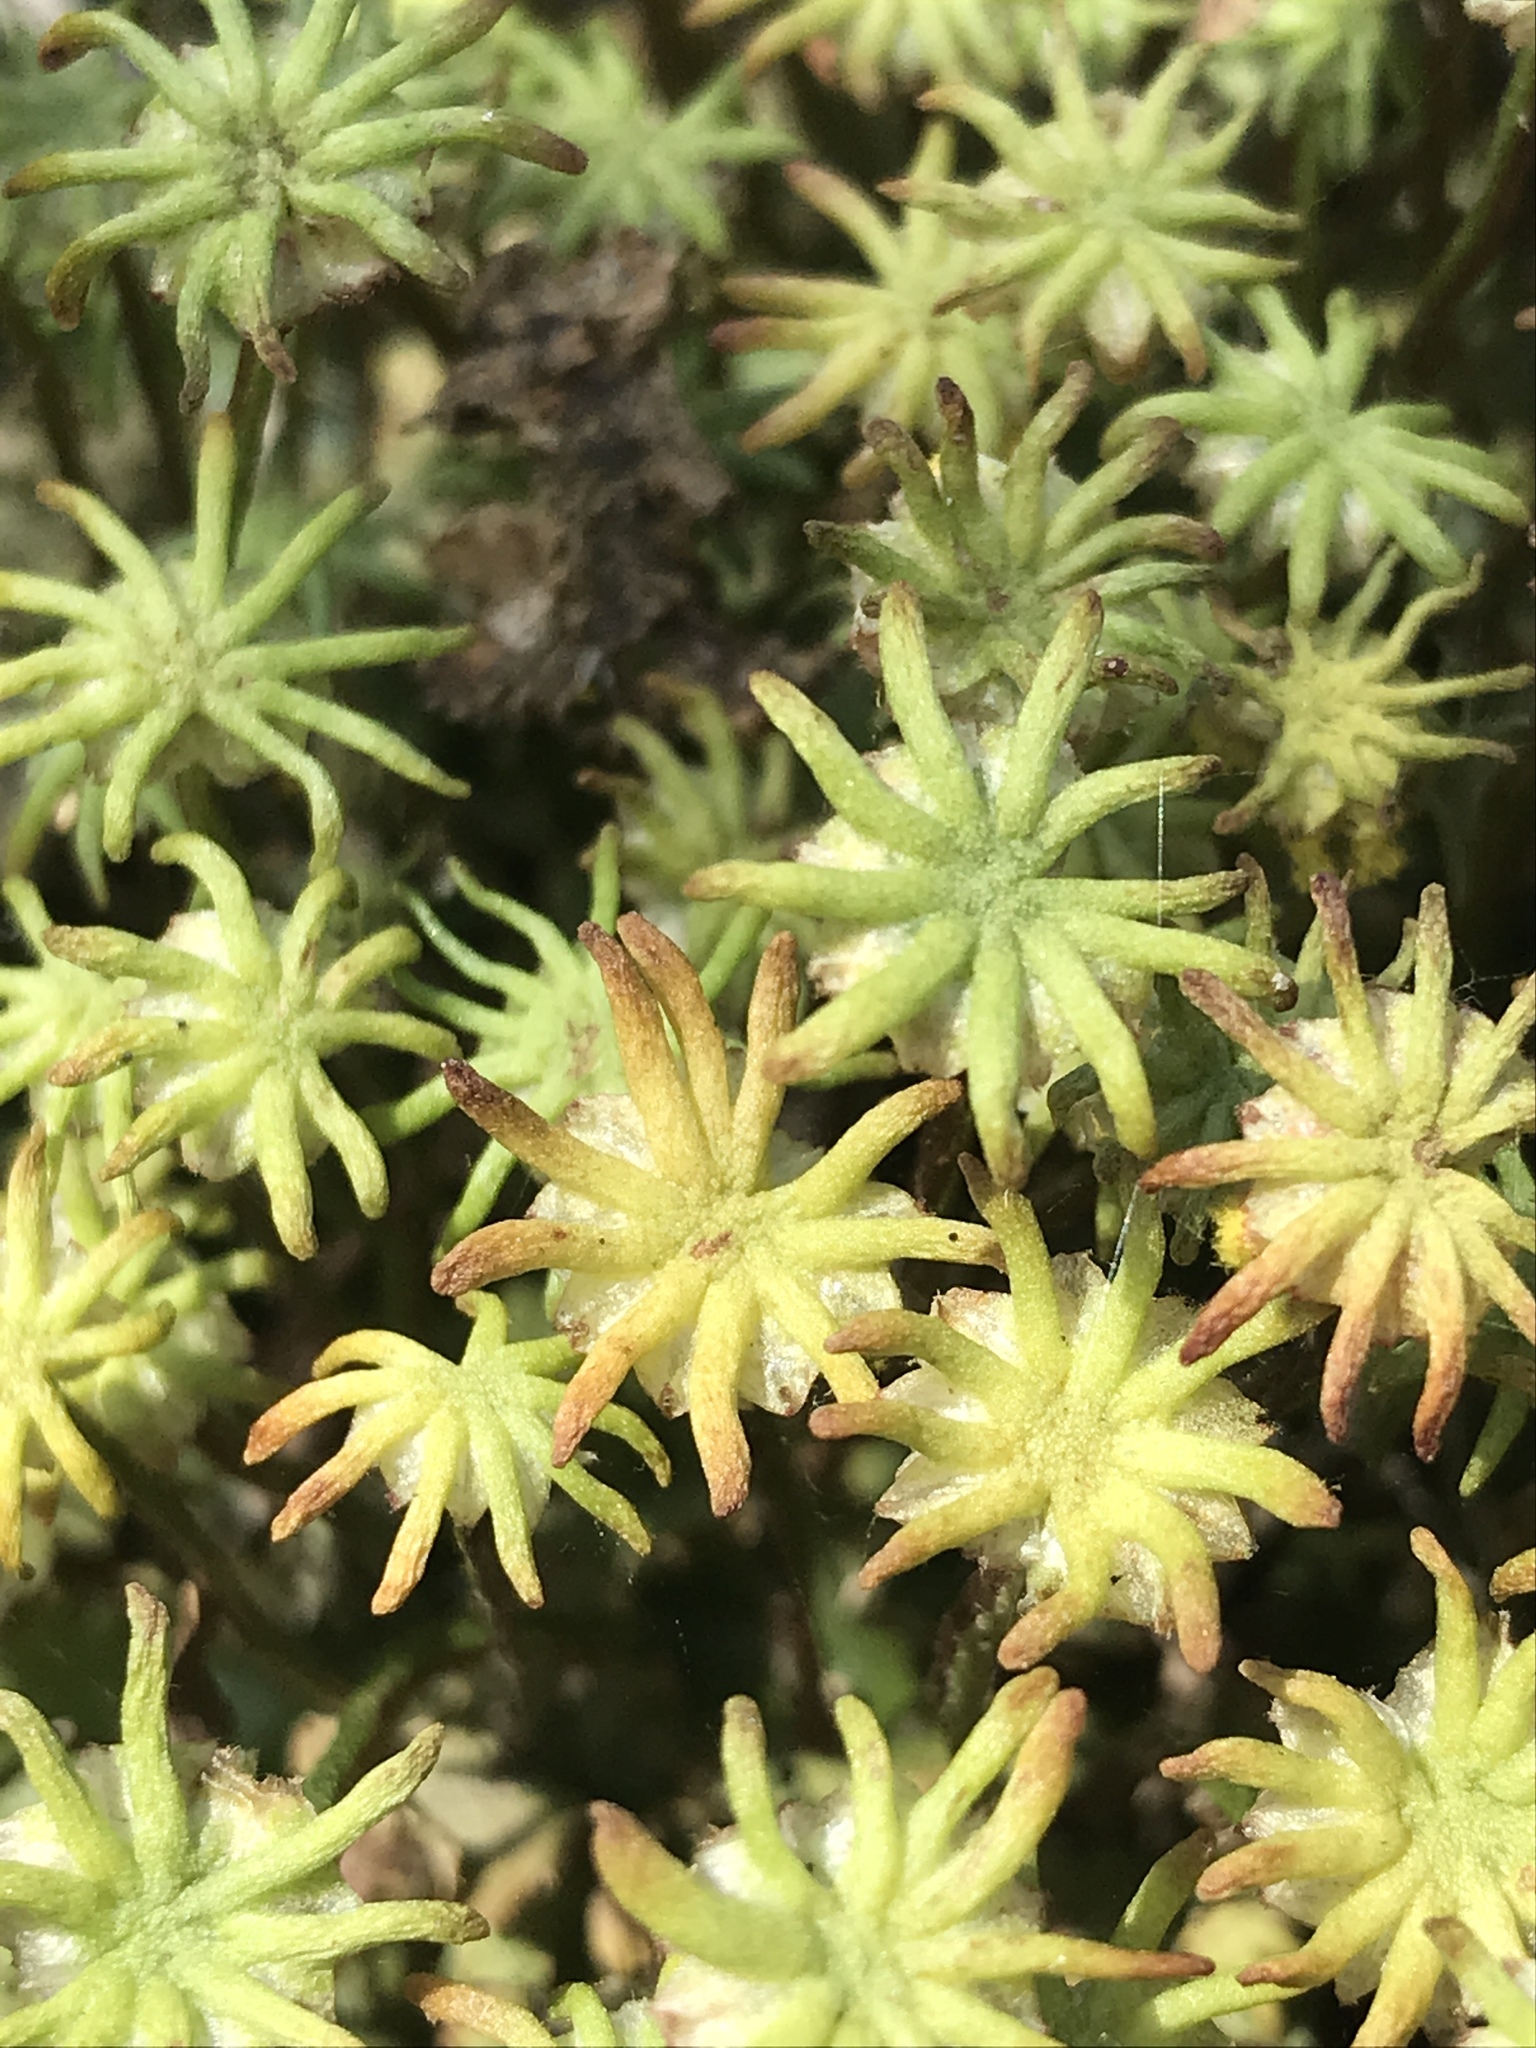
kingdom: Plantae
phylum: Marchantiophyta
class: Marchantiopsida
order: Marchantiales
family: Marchantiaceae
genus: Marchantia
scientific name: Marchantia polymorpha
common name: Common liverwort
